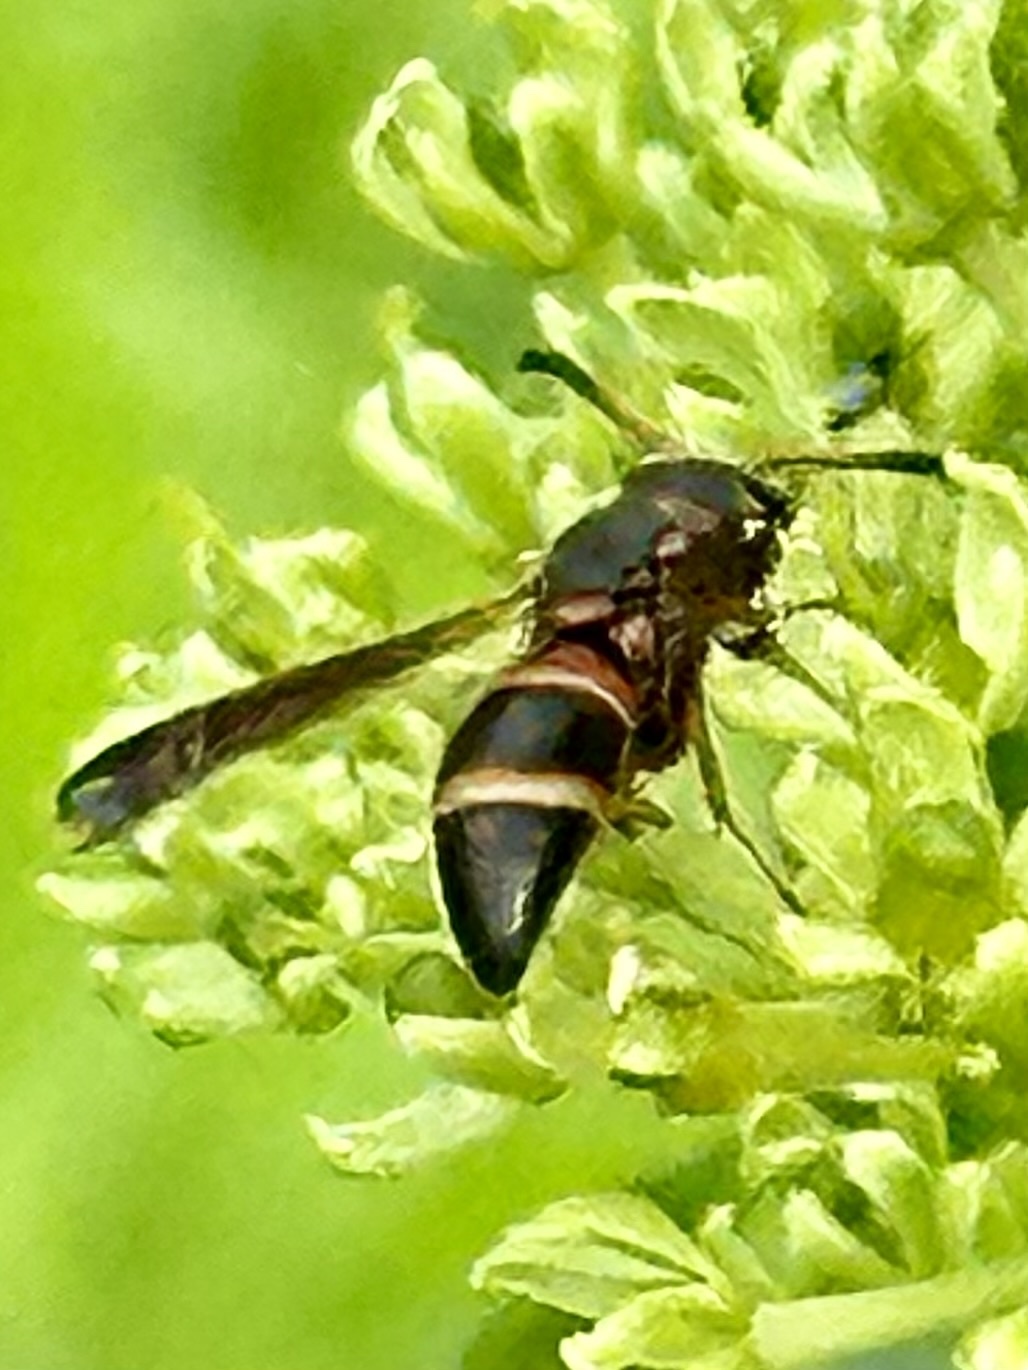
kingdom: Animalia
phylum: Arthropoda
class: Insecta
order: Hymenoptera
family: Eumenidae
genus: Pachodynerus
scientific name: Pachodynerus erynnis
